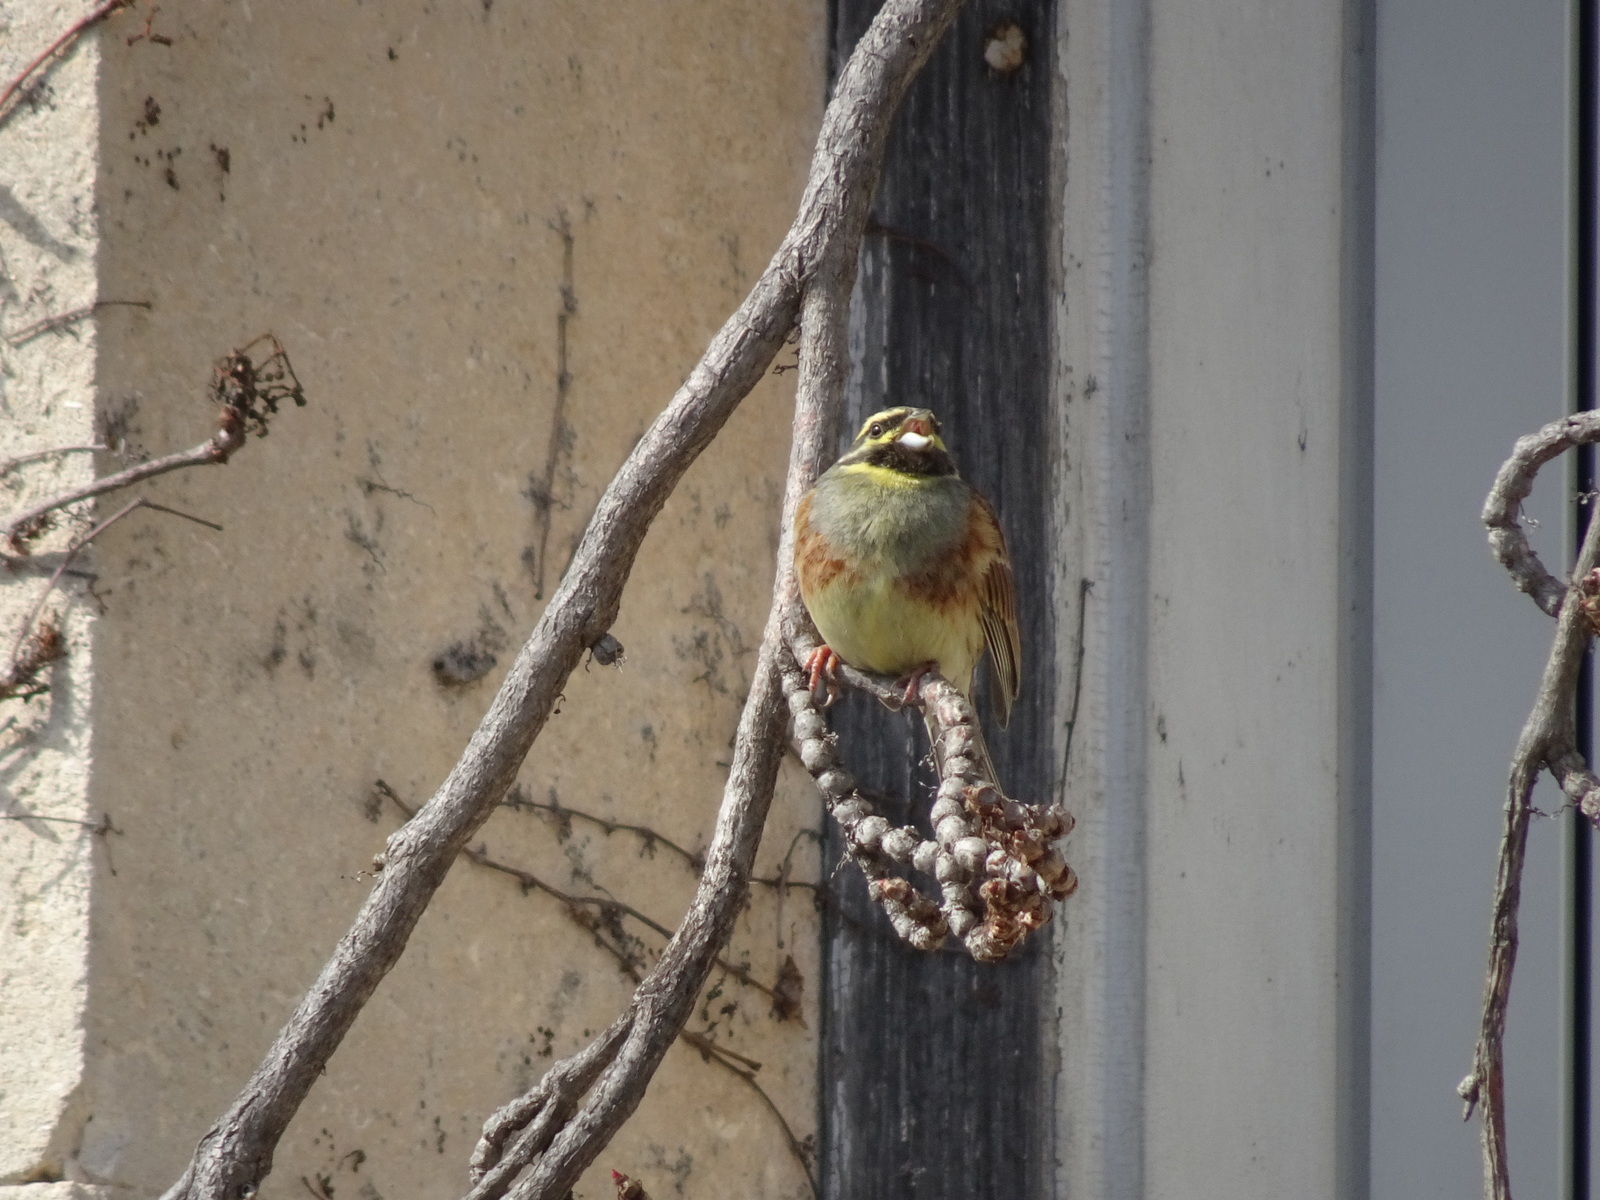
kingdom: Animalia
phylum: Chordata
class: Aves
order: Passeriformes
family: Emberizidae
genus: Emberiza
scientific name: Emberiza cirlus
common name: Cirl bunting
